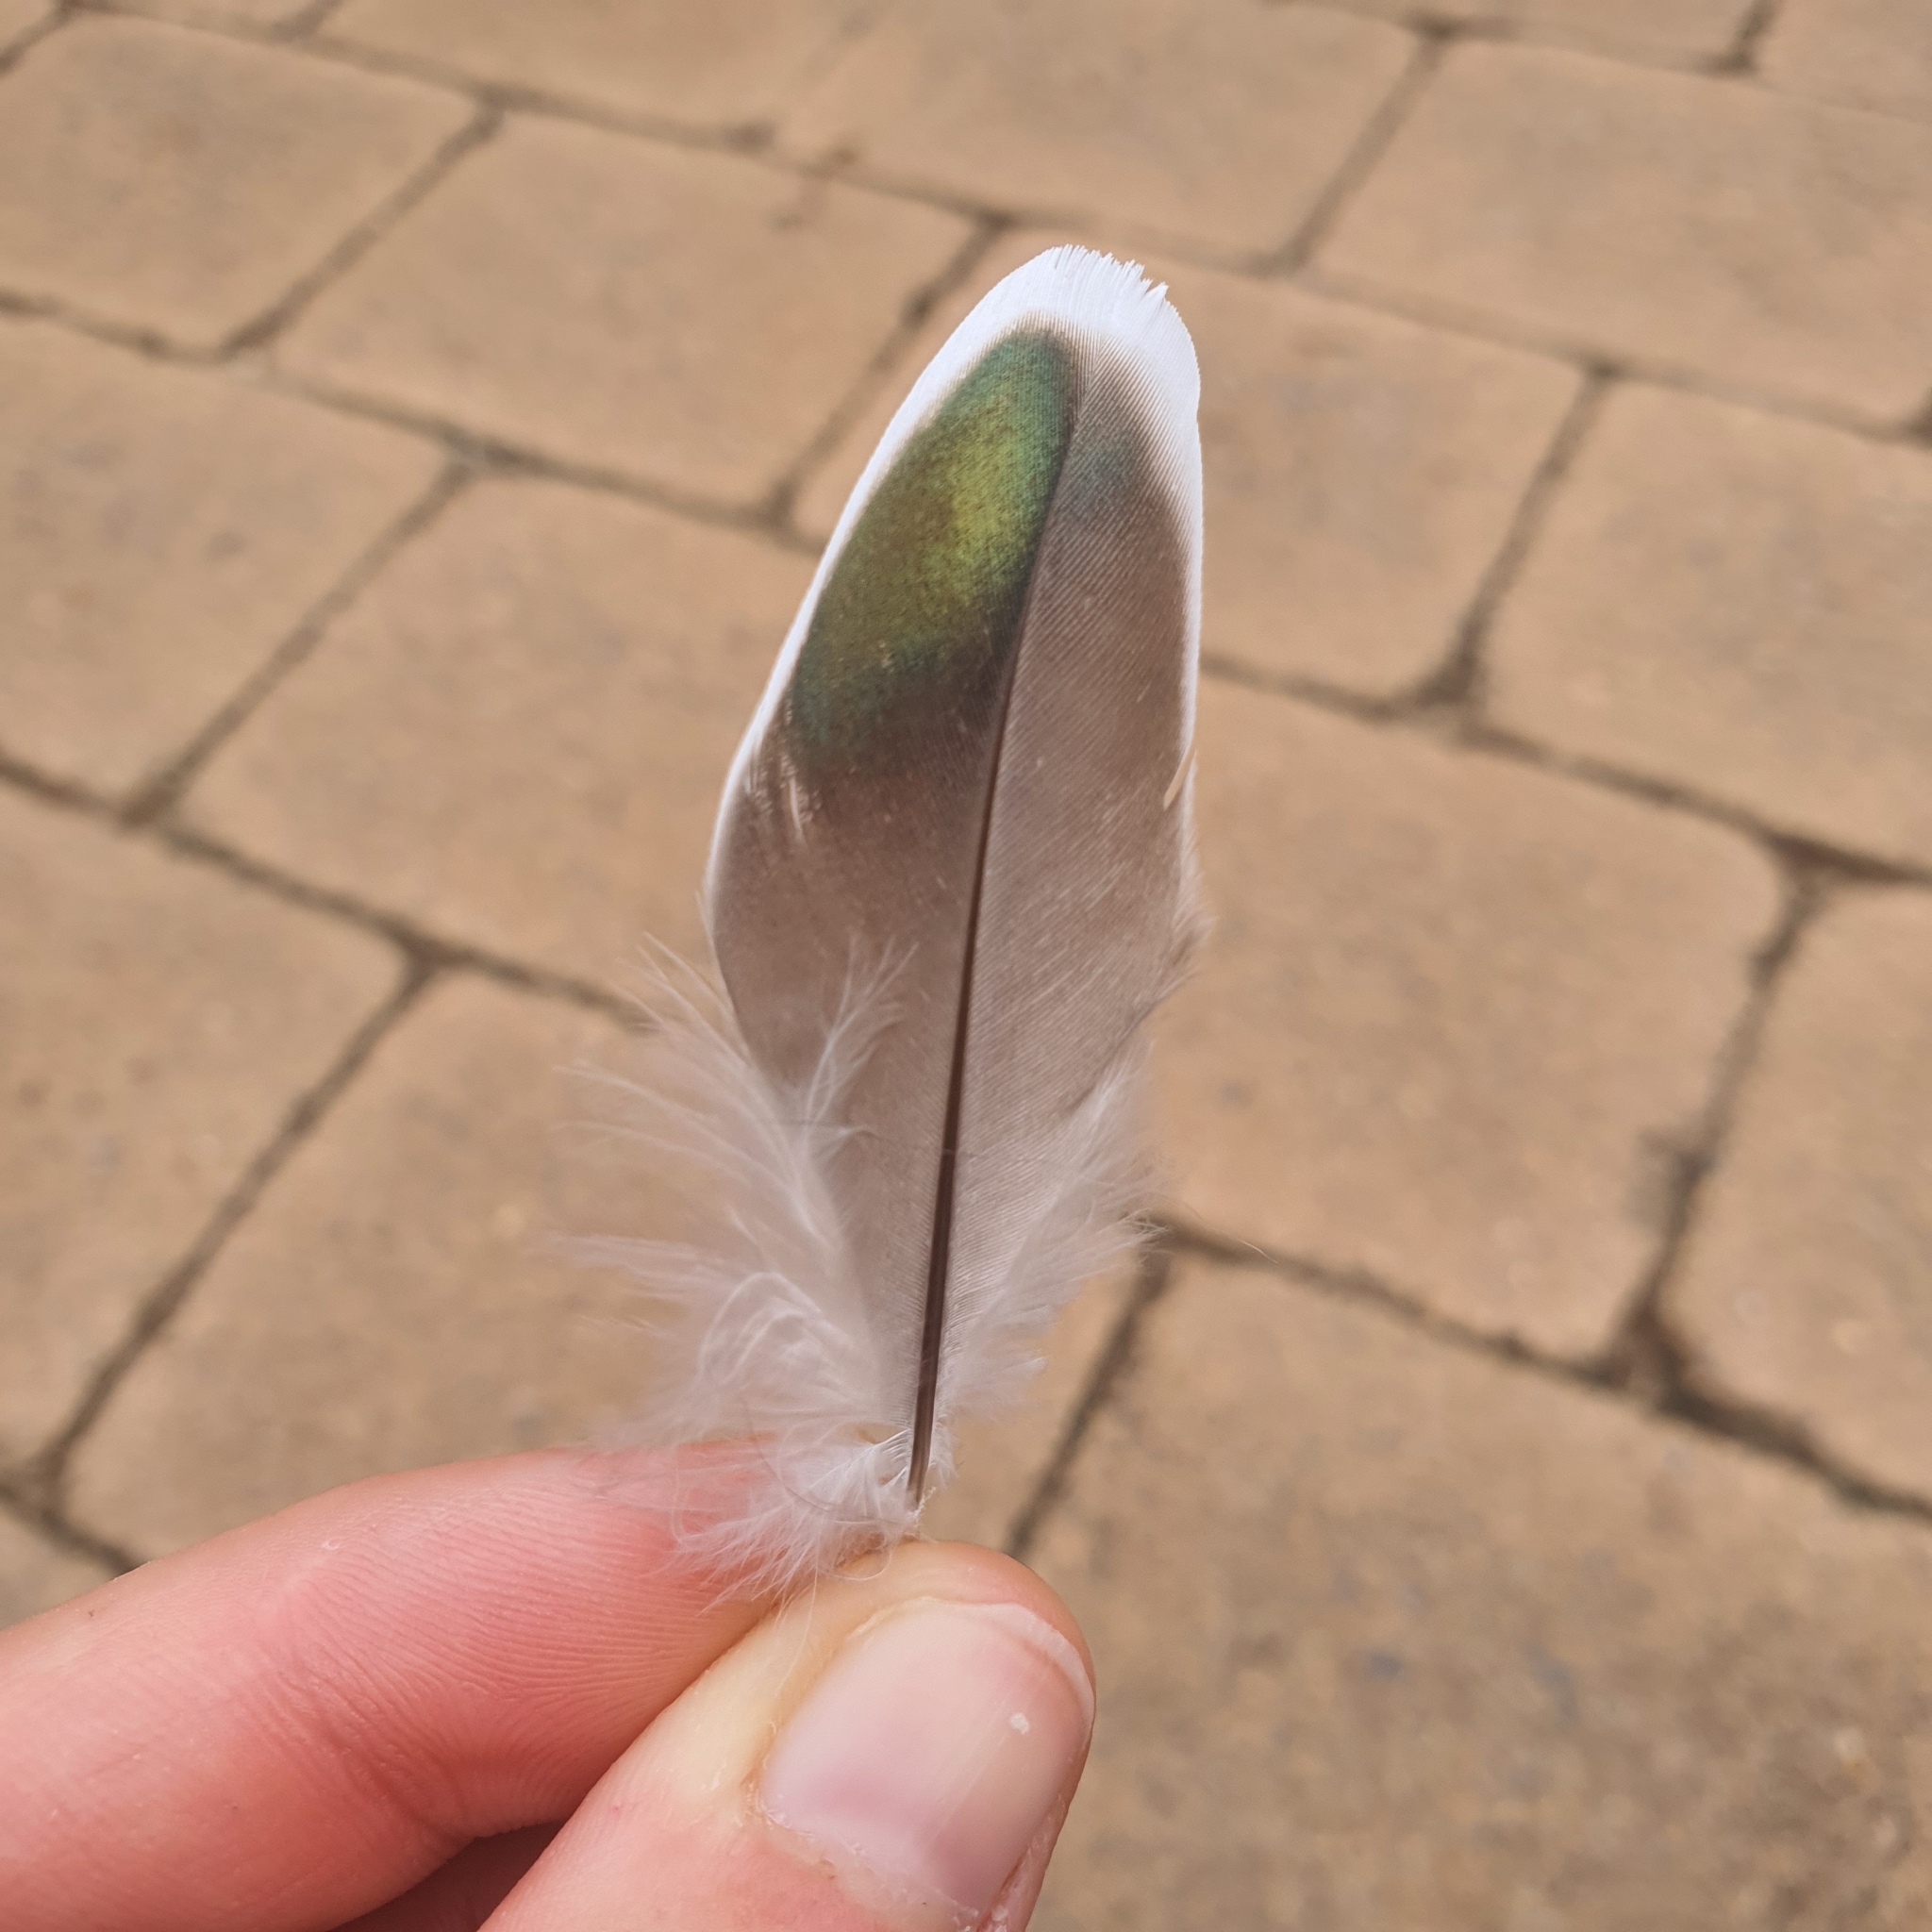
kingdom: Animalia
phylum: Chordata
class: Aves
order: Columbiformes
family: Columbidae
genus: Ocyphaps
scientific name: Ocyphaps lophotes
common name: Crested pigeon
